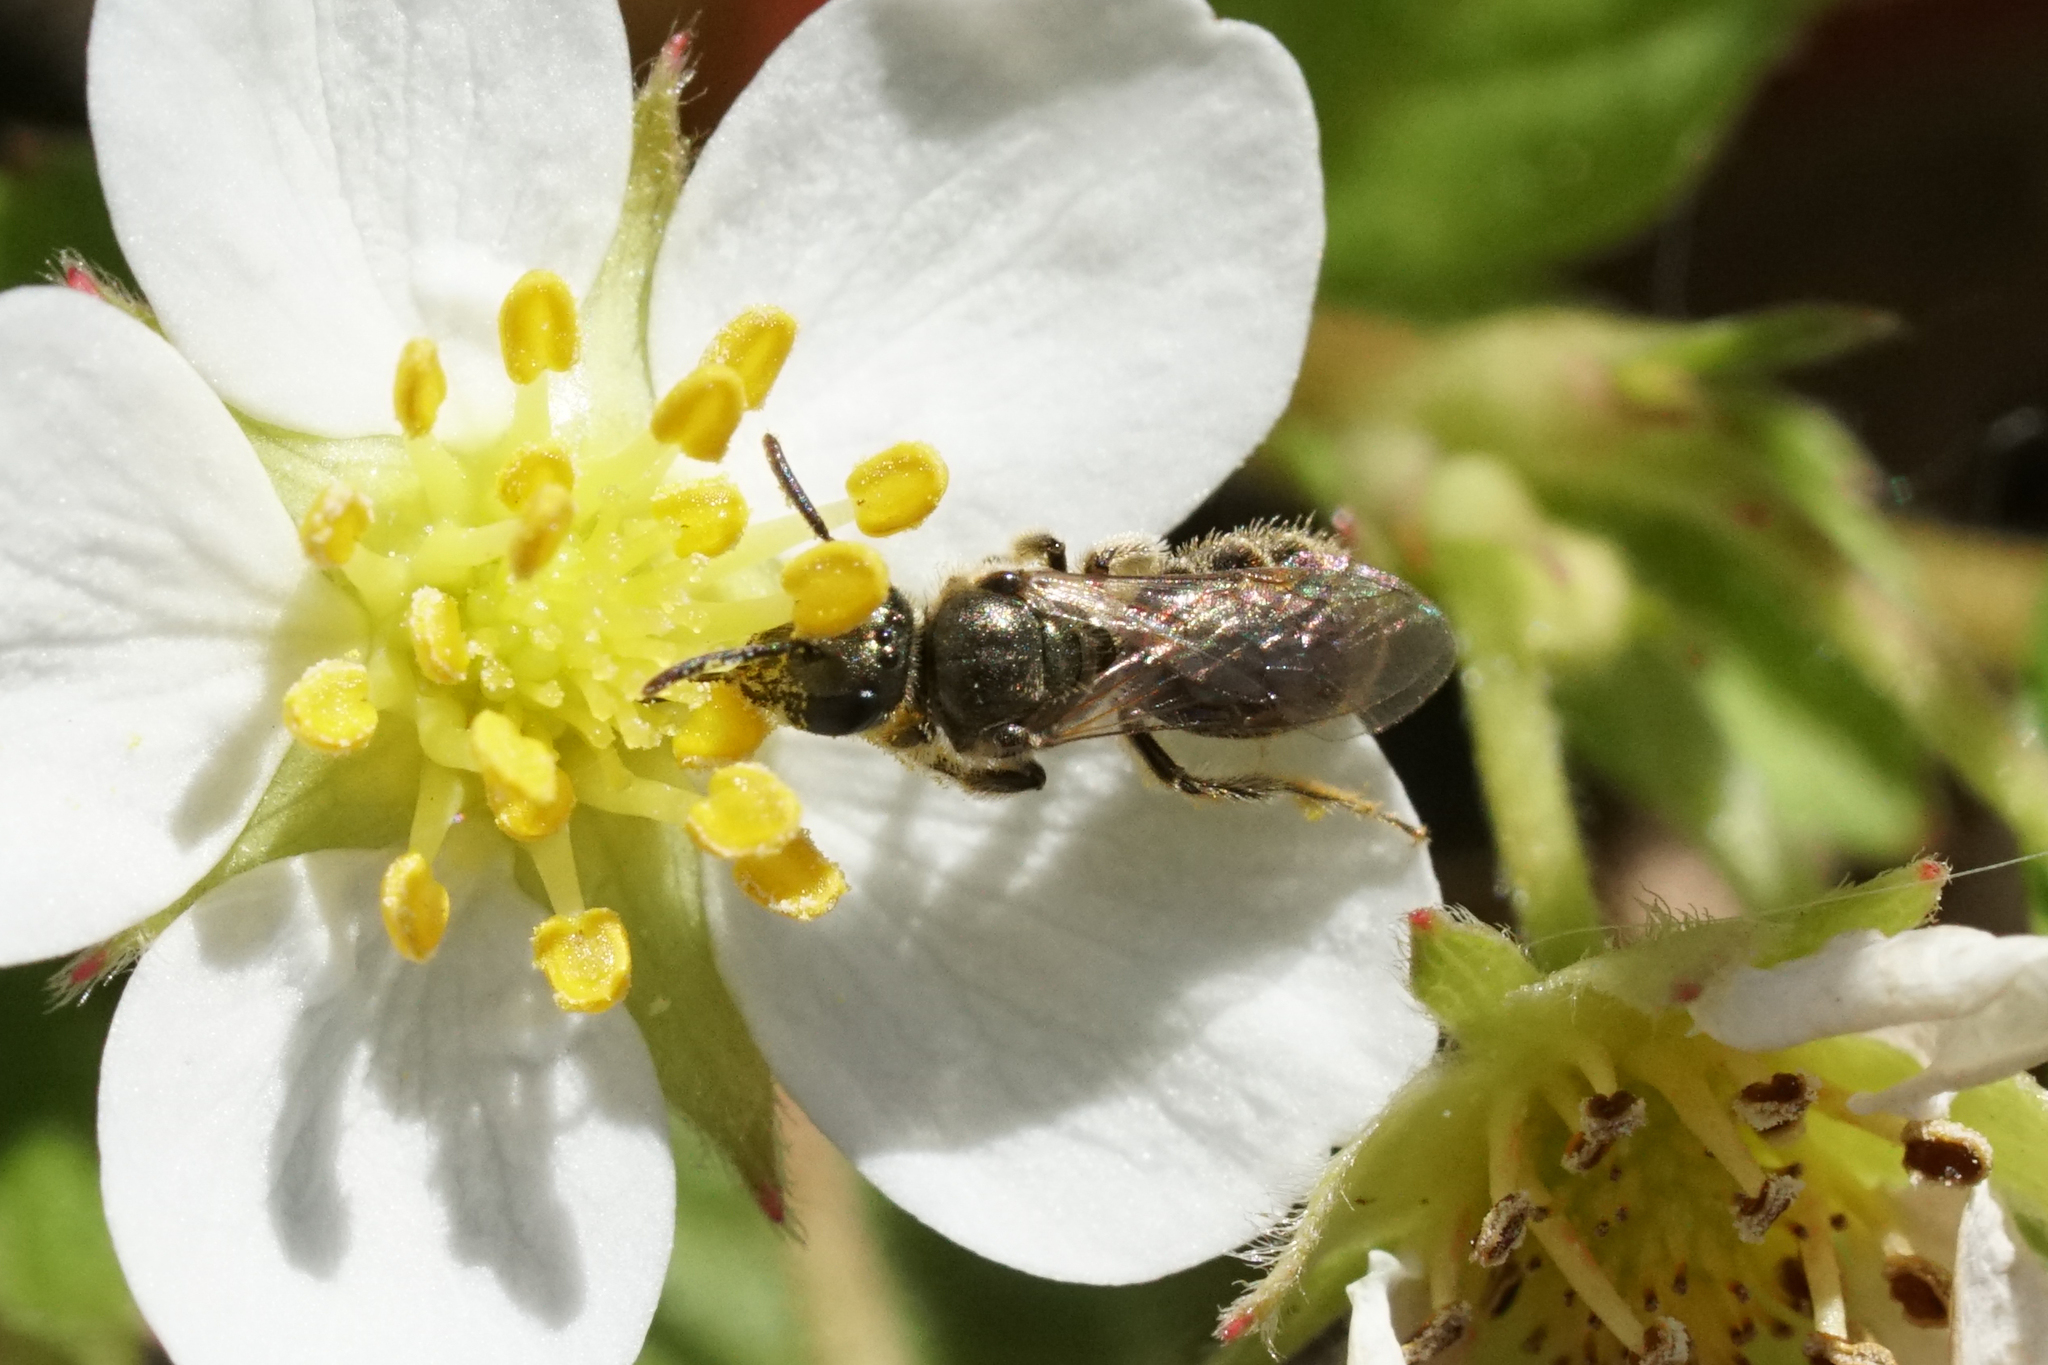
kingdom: Animalia
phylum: Arthropoda
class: Insecta
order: Hymenoptera
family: Halictidae
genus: Dialictus
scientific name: Dialictus
